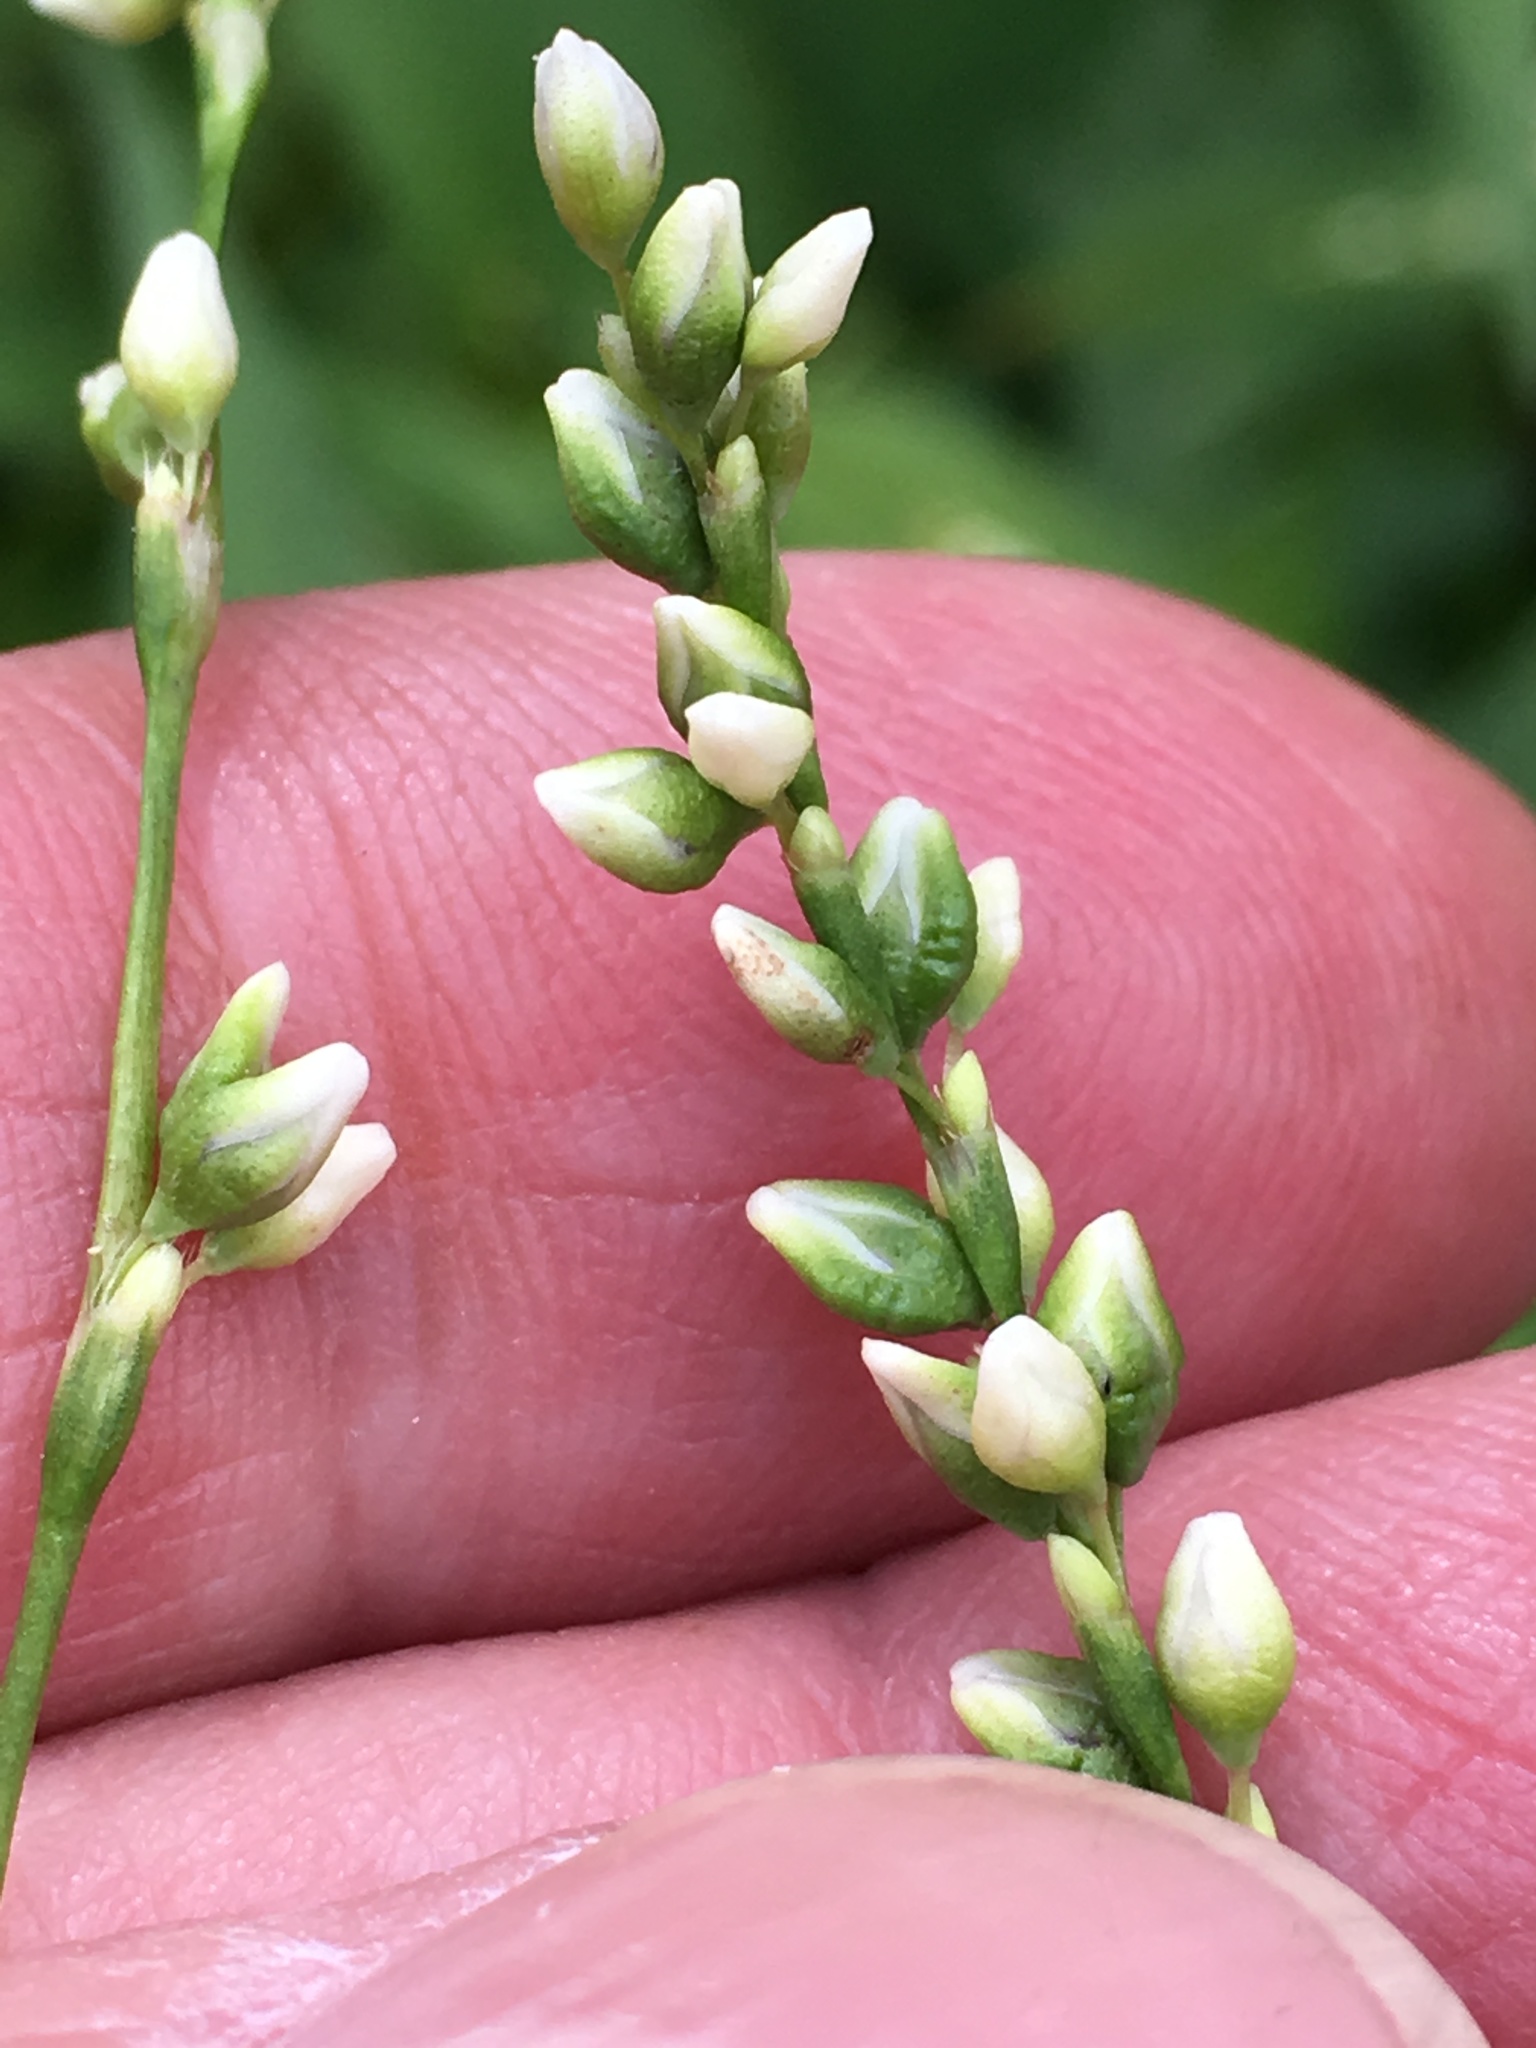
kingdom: Plantae
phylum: Tracheophyta
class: Magnoliopsida
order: Caryophyllales
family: Polygonaceae
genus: Persicaria
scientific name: Persicaria punctata
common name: Dotted smartweed
